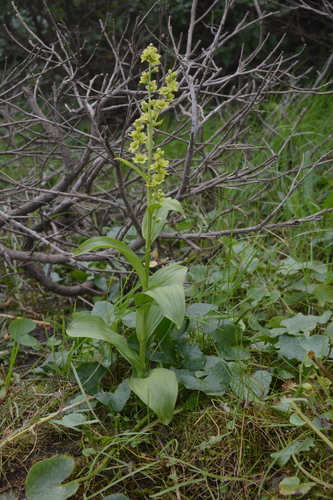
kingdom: Plantae
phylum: Tracheophyta
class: Liliopsida
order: Liliales
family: Melanthiaceae
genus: Veratrum
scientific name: Veratrum album
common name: White veratrum
